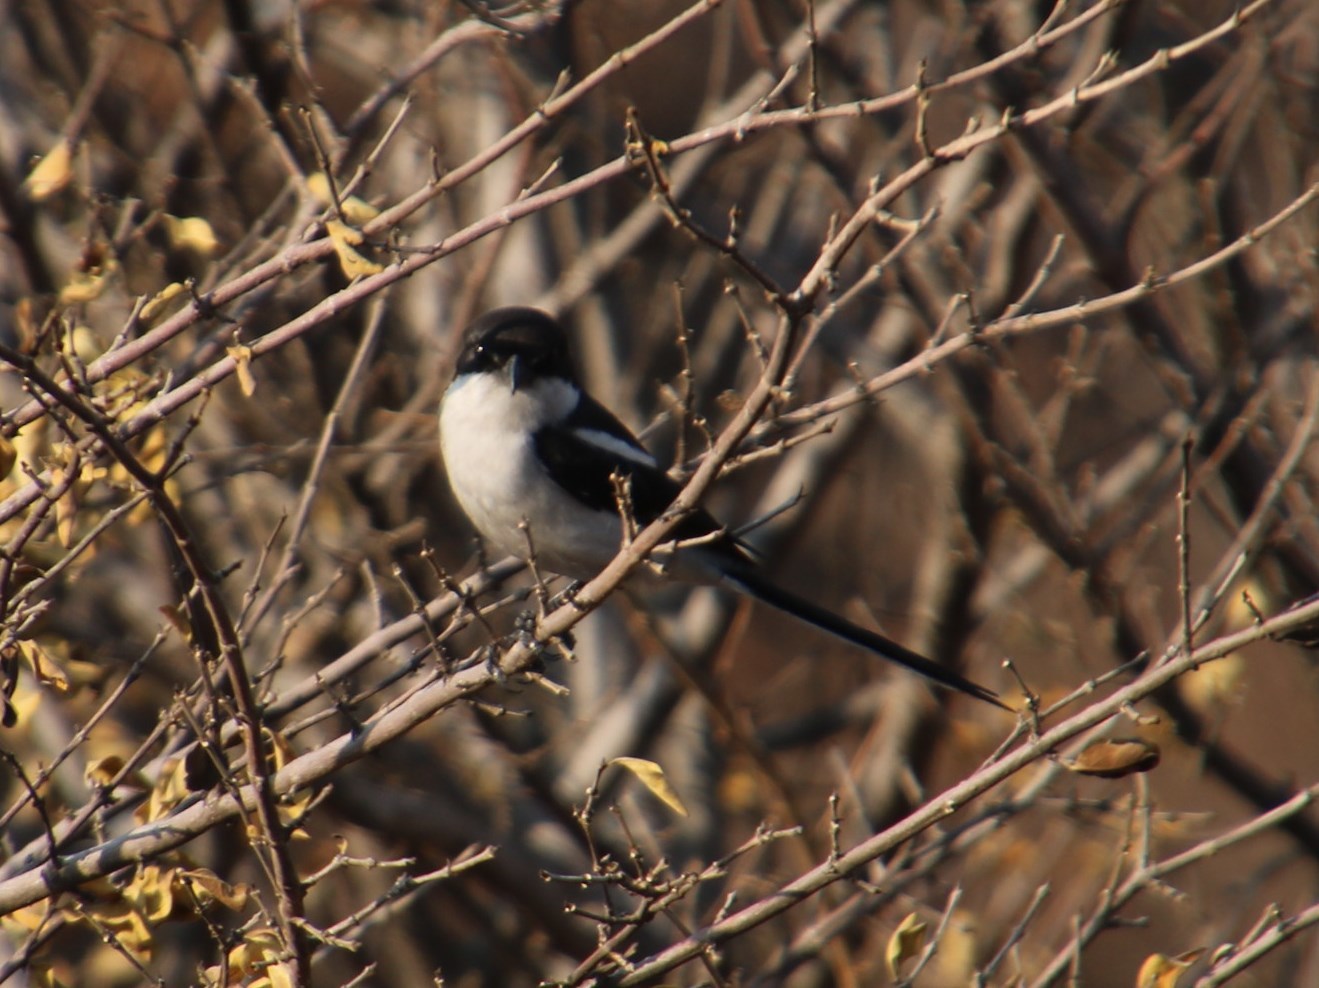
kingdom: Animalia
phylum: Chordata
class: Aves
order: Passeriformes
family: Laniidae
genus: Lanius
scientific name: Lanius collaris
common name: Southern fiscal
